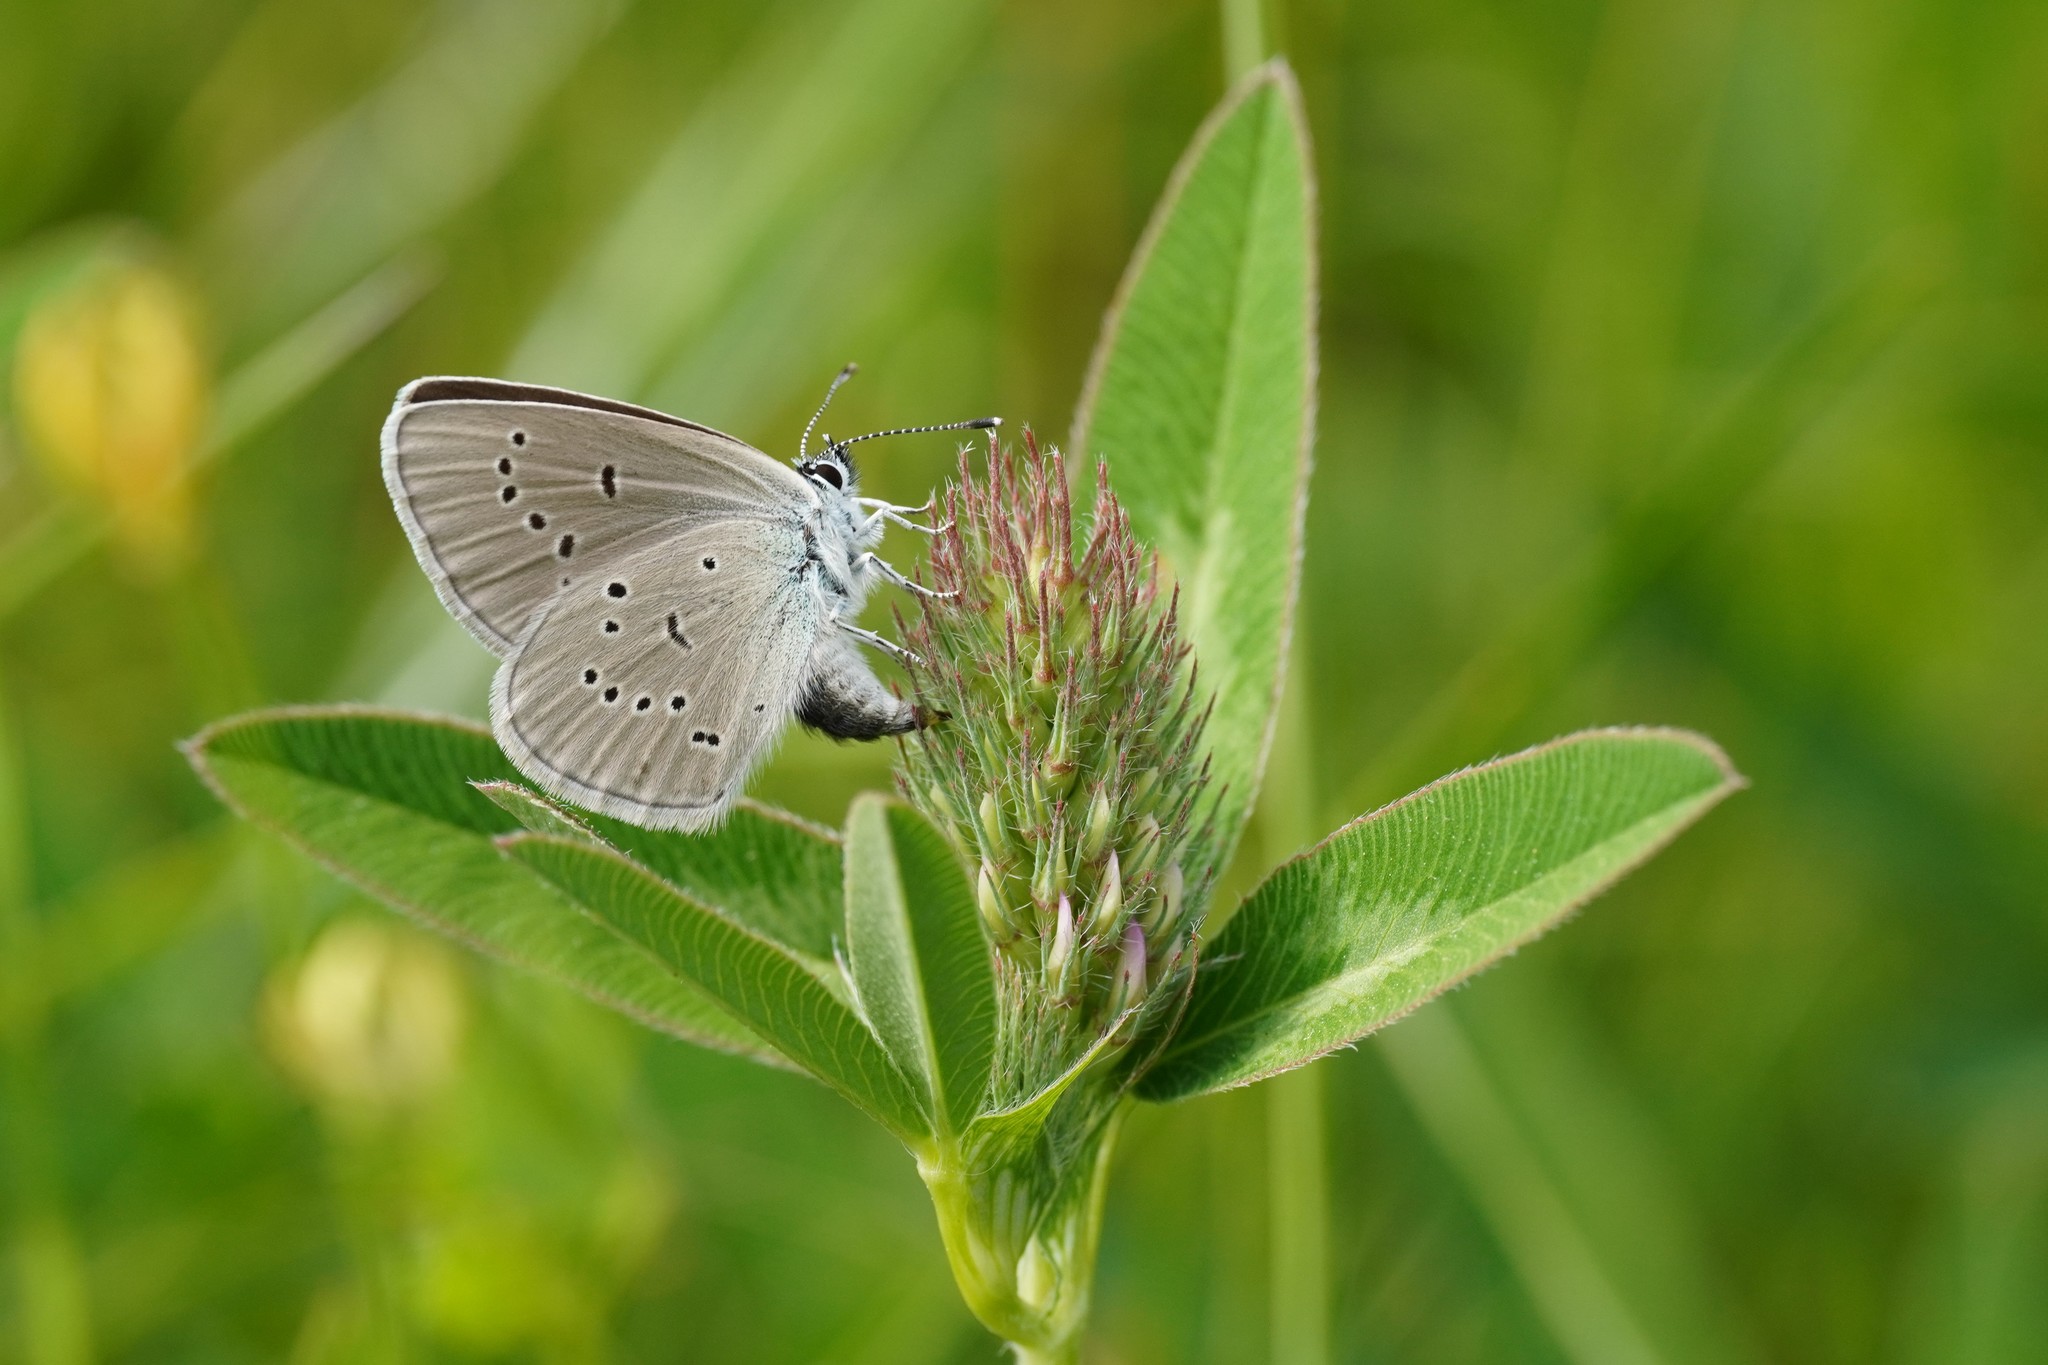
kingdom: Animalia
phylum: Arthropoda
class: Insecta
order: Lepidoptera
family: Lycaenidae
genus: Cyaniris
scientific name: Cyaniris semiargus
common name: Mazarine blue
